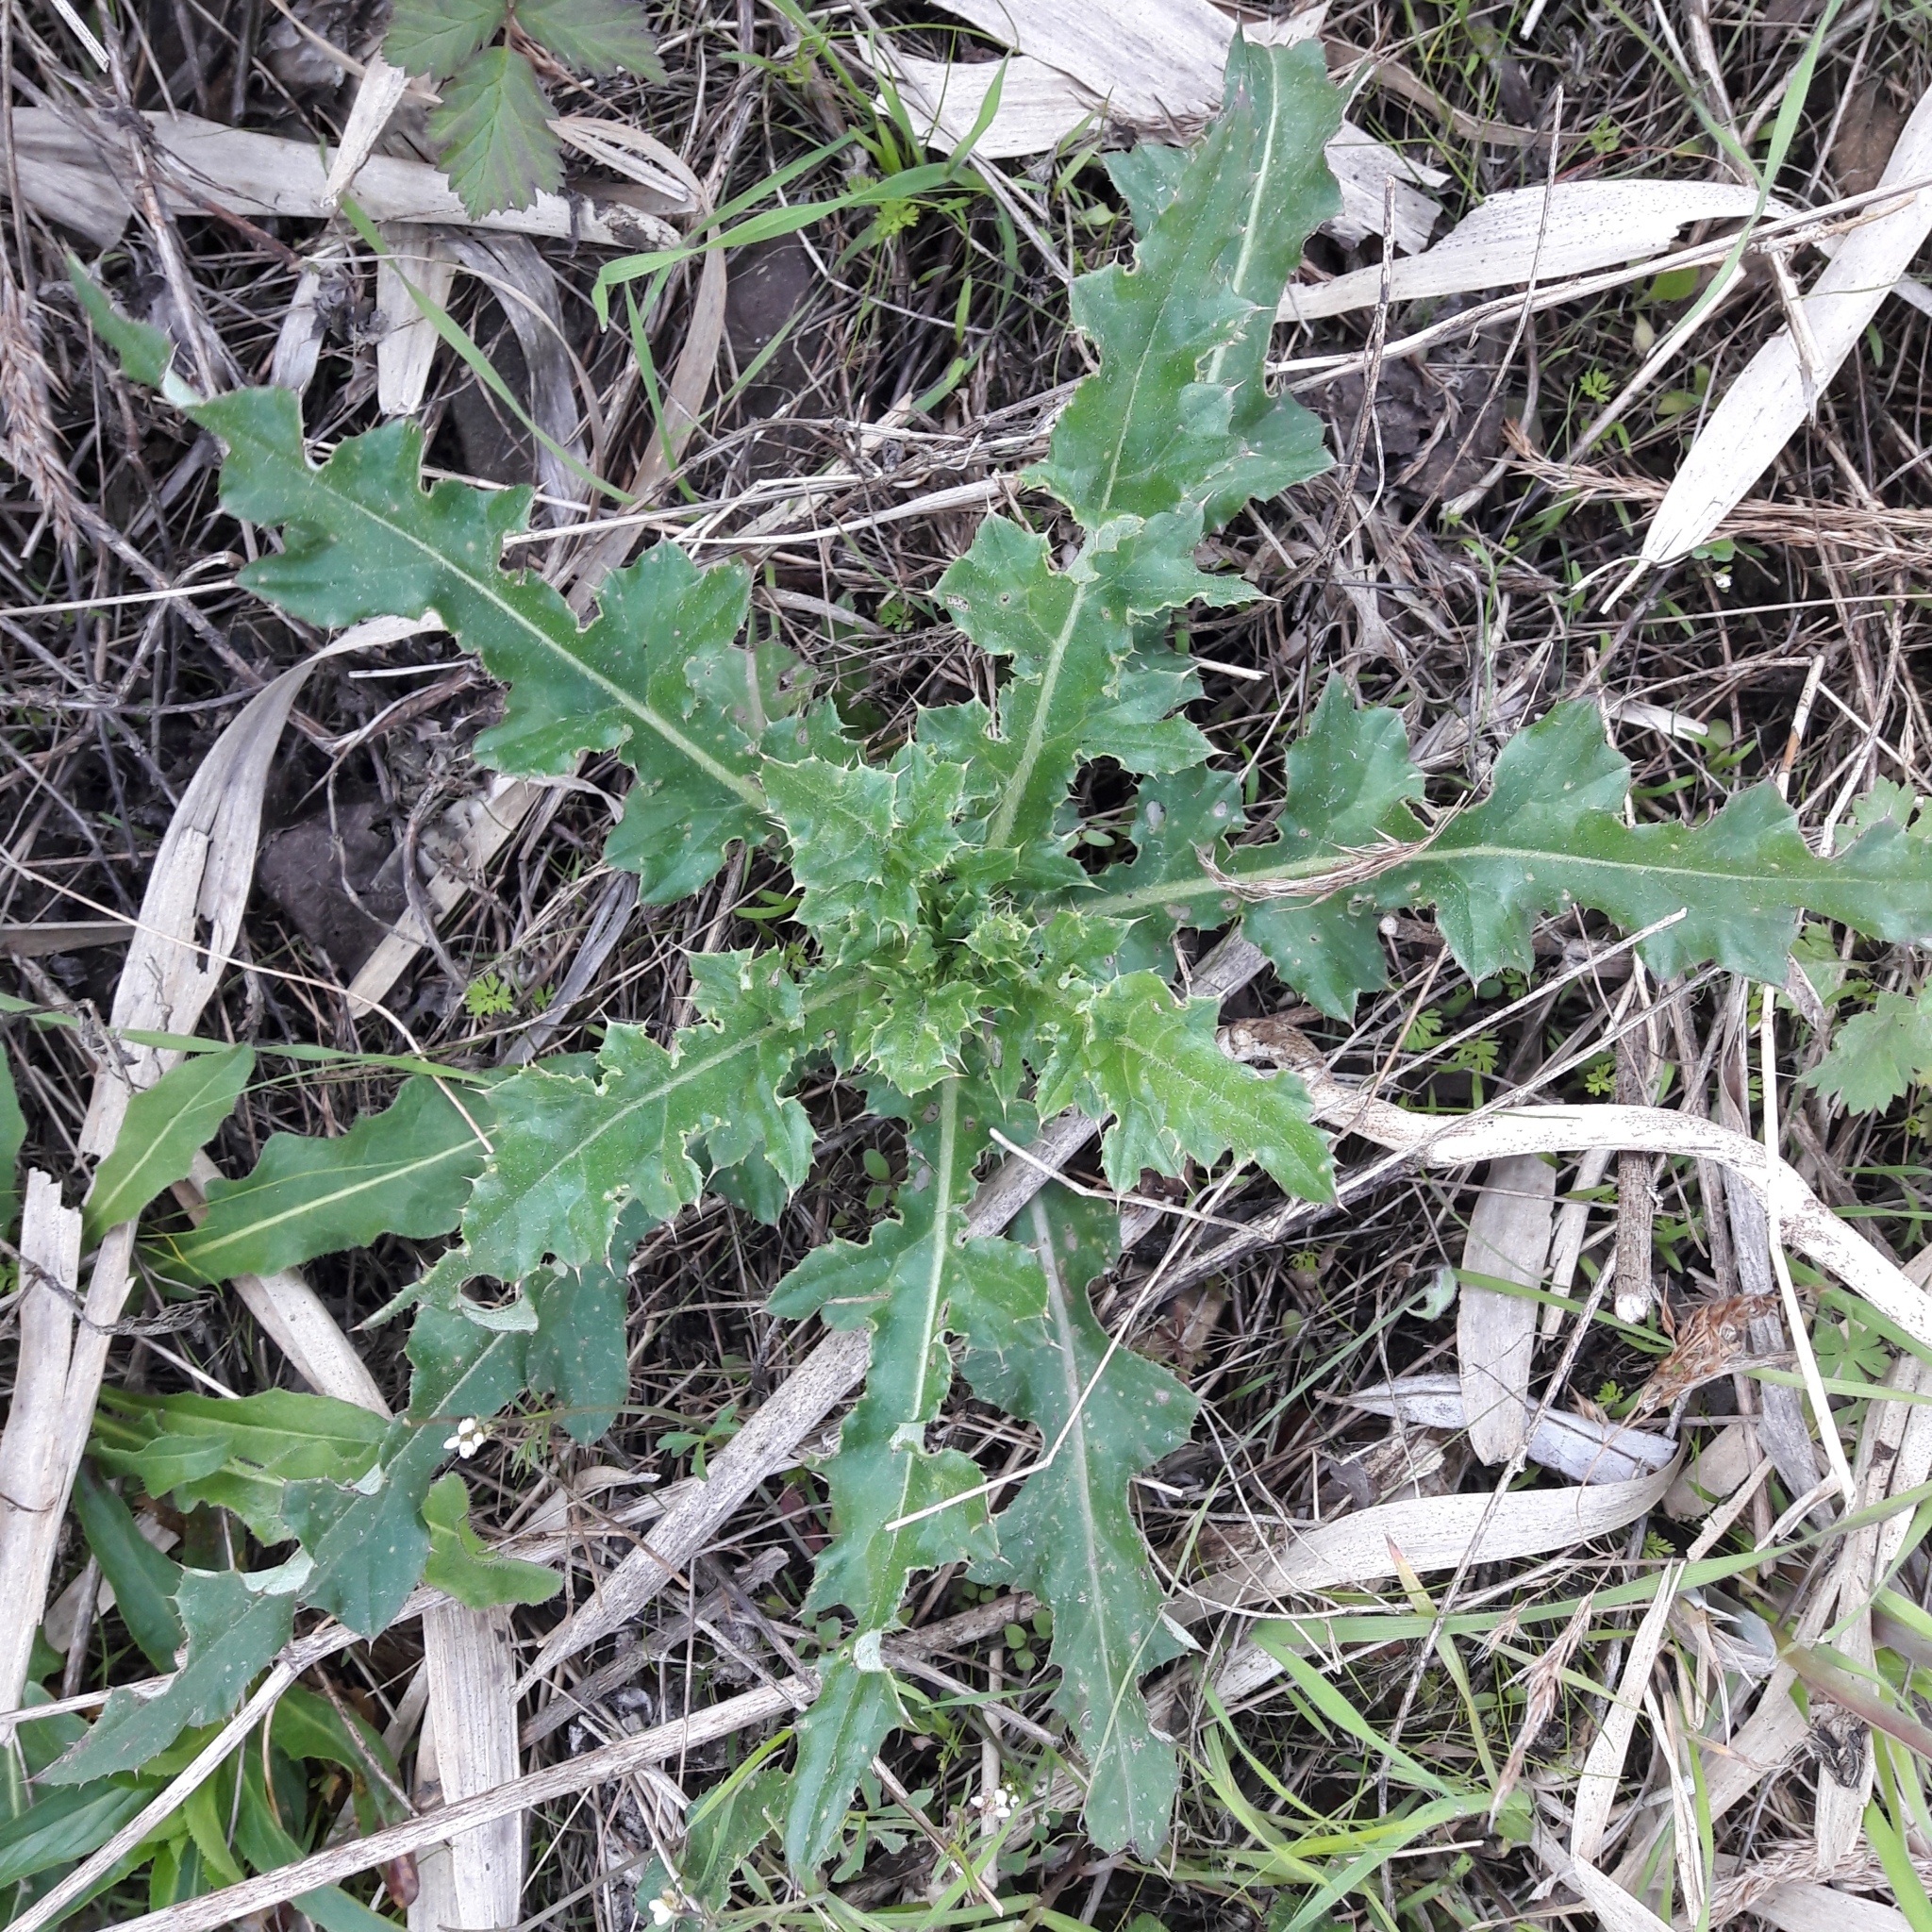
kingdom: Plantae
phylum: Tracheophyta
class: Magnoliopsida
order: Asterales
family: Asteraceae
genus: Cirsium
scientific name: Cirsium arvense
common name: Creeping thistle
